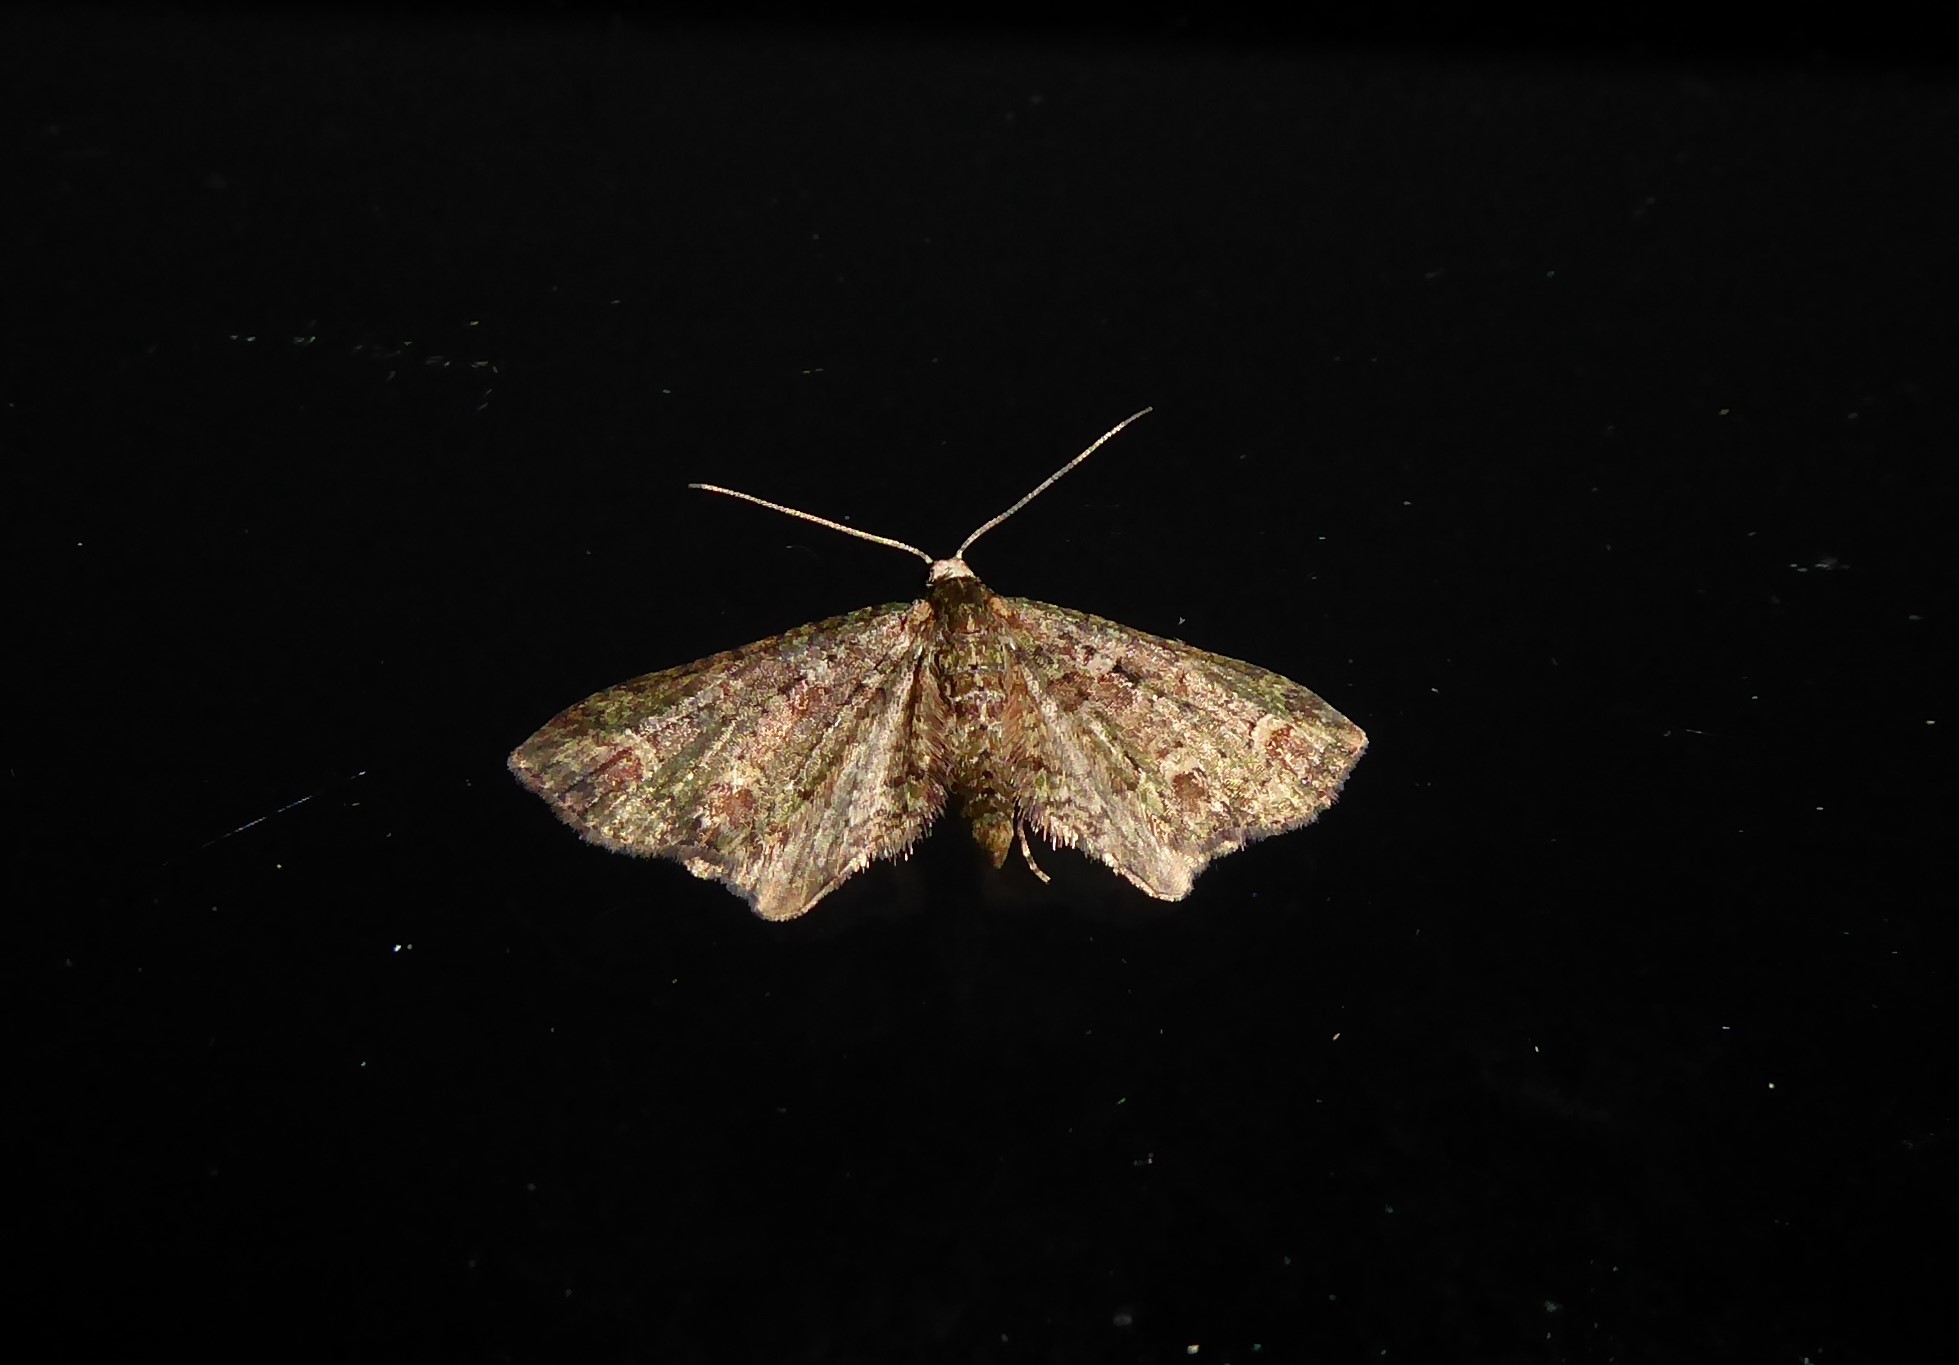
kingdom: Animalia
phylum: Arthropoda
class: Insecta
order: Lepidoptera
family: Geometridae
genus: Idaea
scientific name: Idaea mutanda
